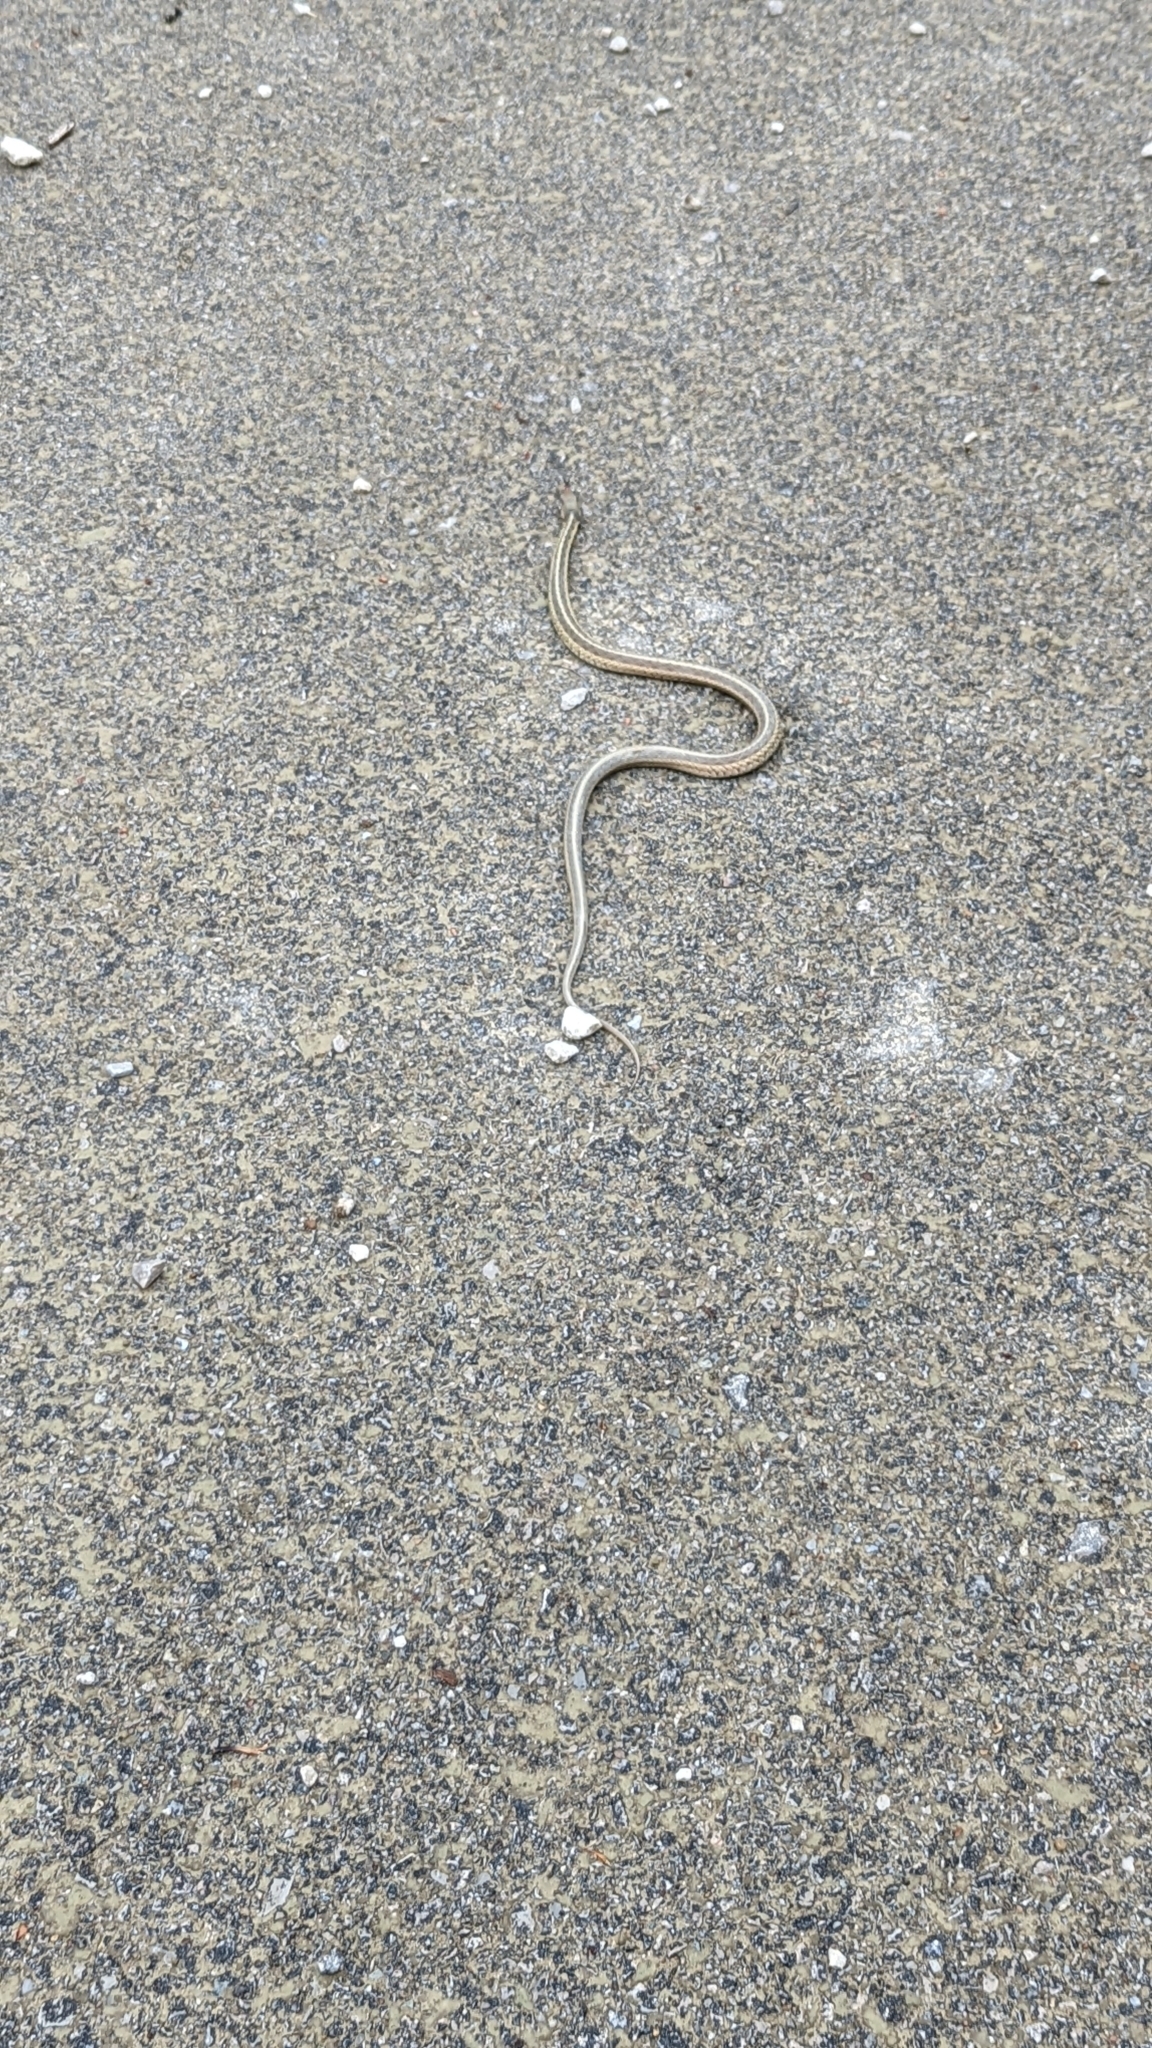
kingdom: Animalia
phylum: Chordata
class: Squamata
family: Colubridae
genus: Thamnophis
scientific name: Thamnophis sirtalis
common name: Common garter snake
